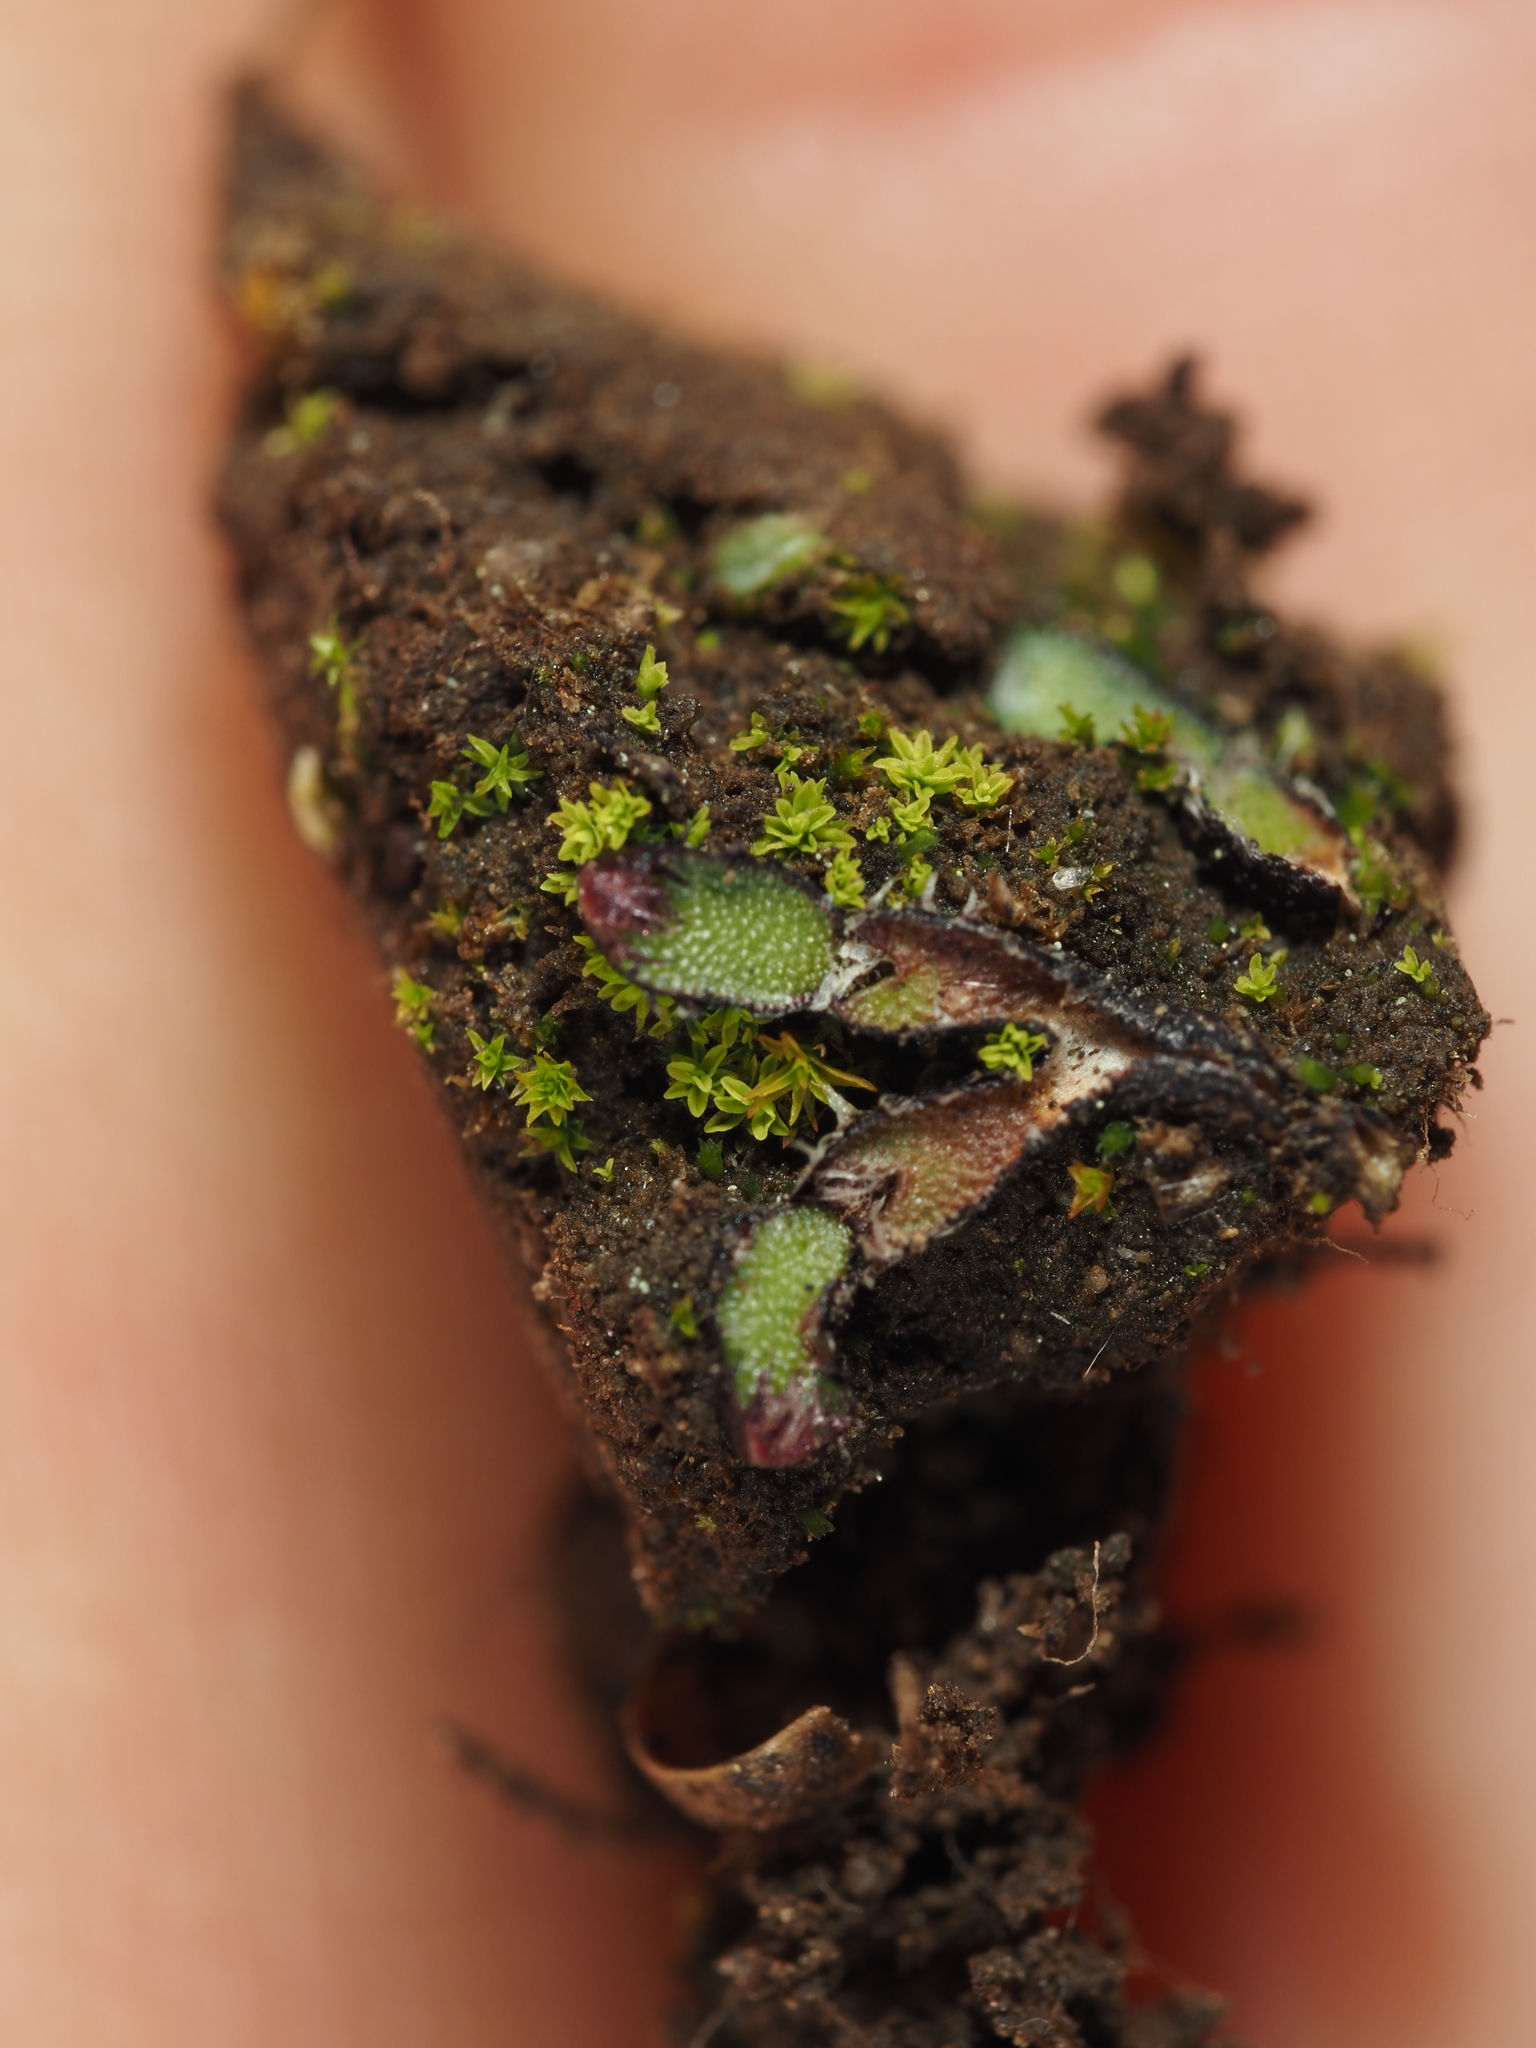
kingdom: Plantae
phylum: Marchantiophyta
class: Marchantiopsida
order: Marchantiales
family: Aytoniaceae
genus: Mannia
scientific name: Mannia fragrans
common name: Fragrant macewort
